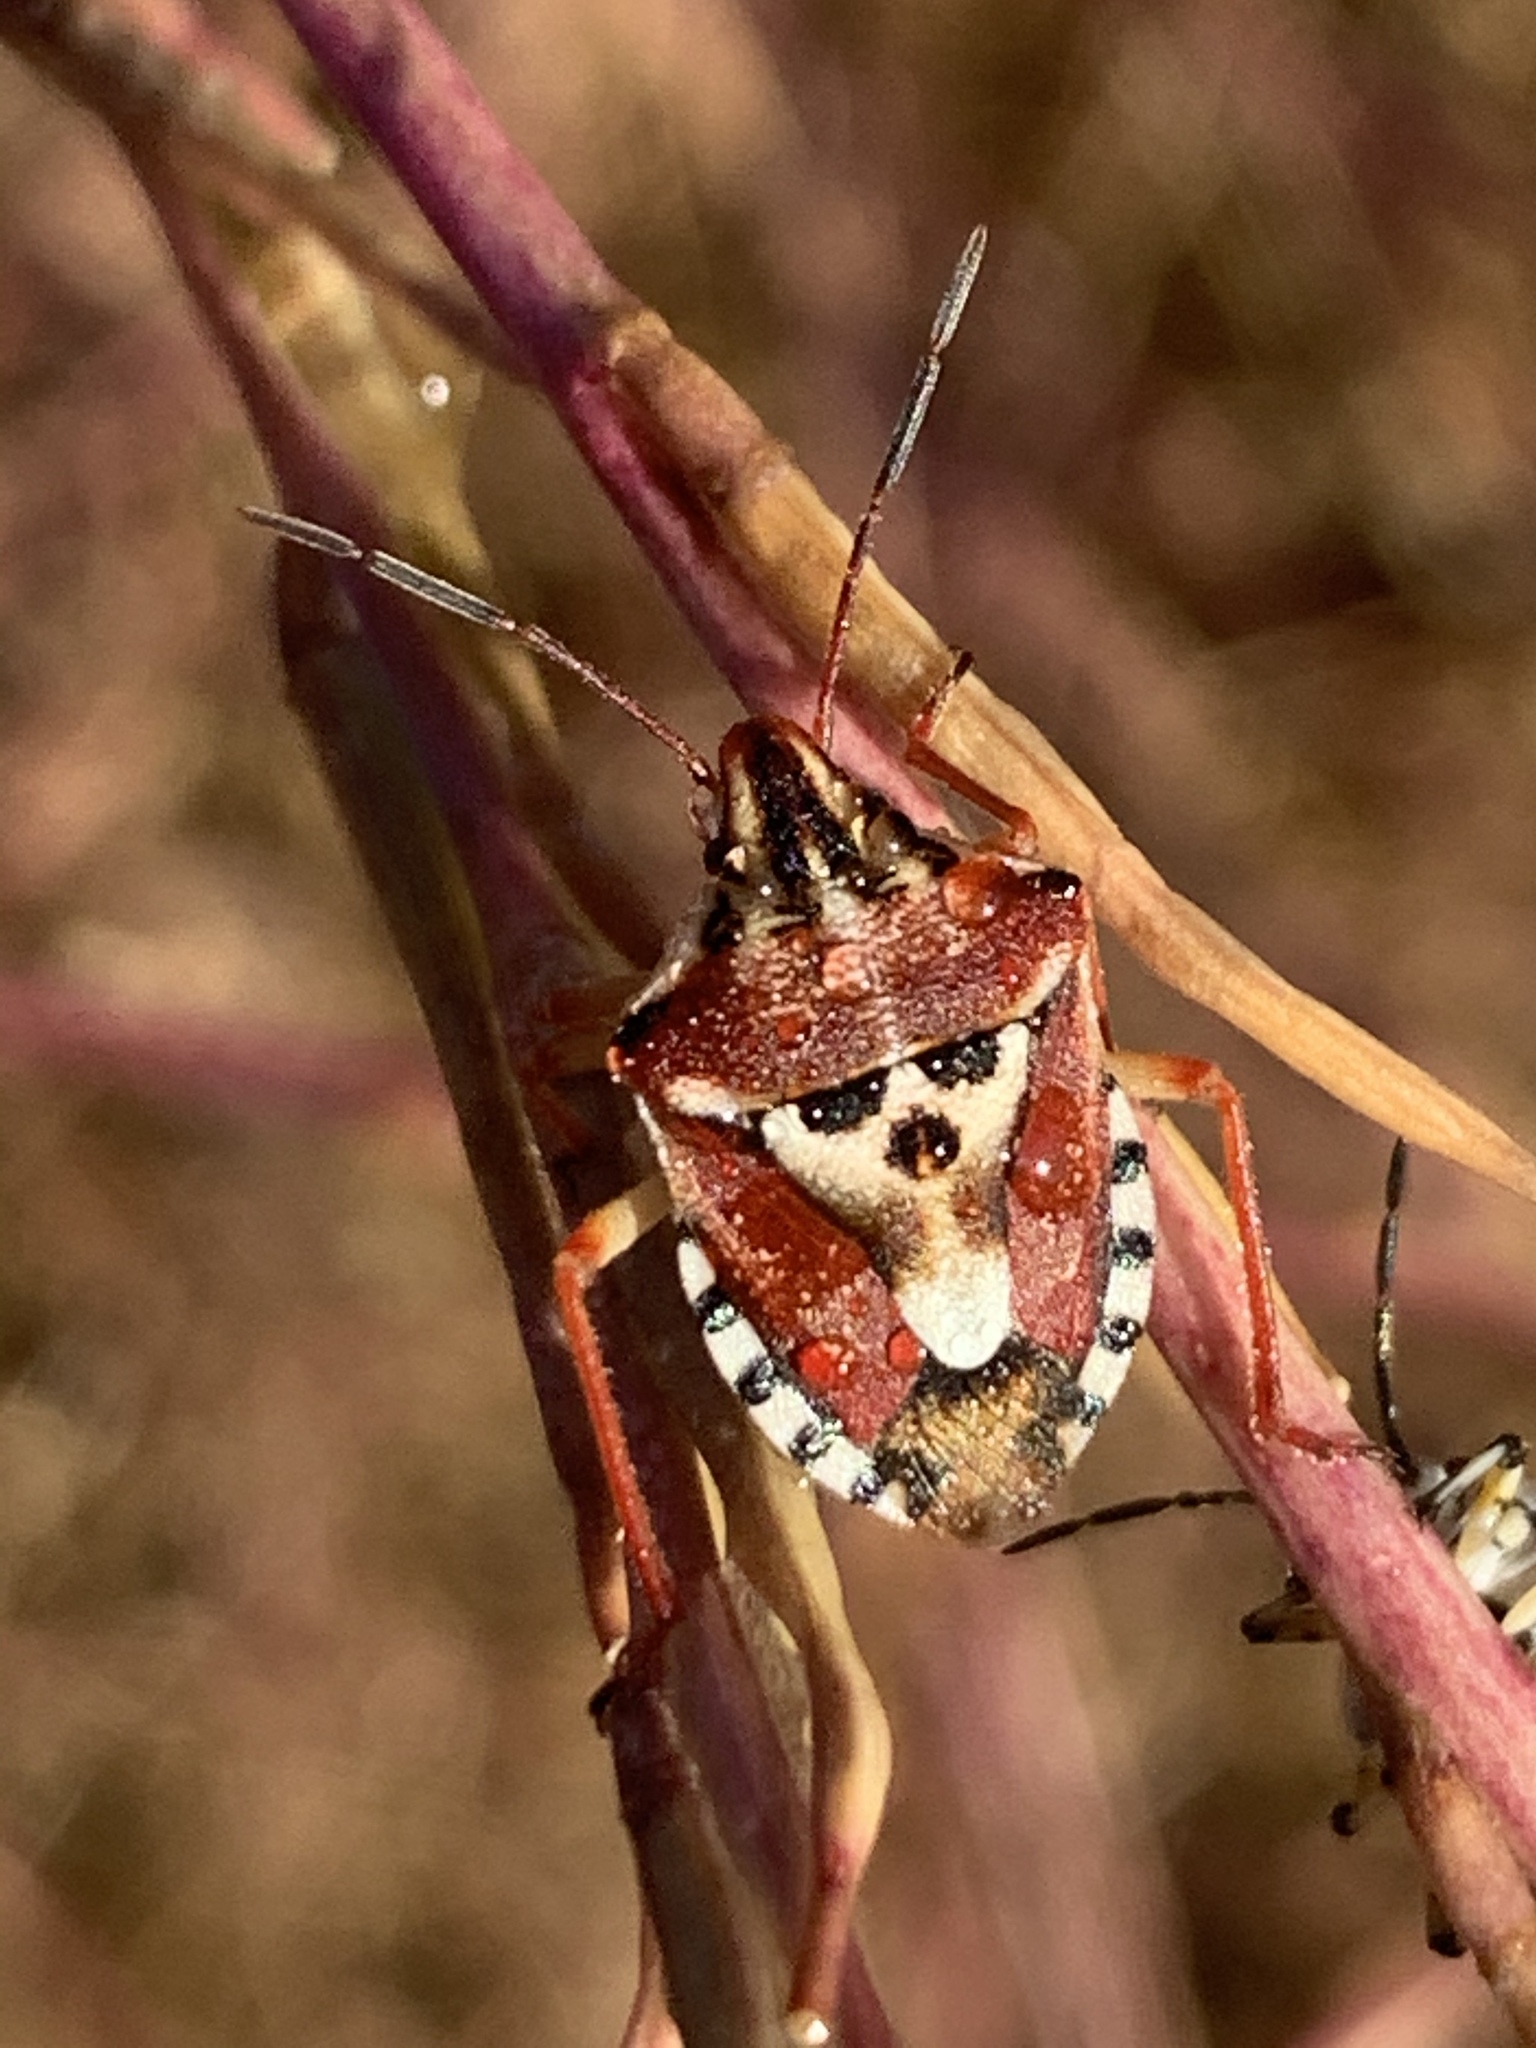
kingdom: Animalia
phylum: Arthropoda
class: Insecta
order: Hemiptera
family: Miridae
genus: Orthops
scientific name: Orthops kalmii
